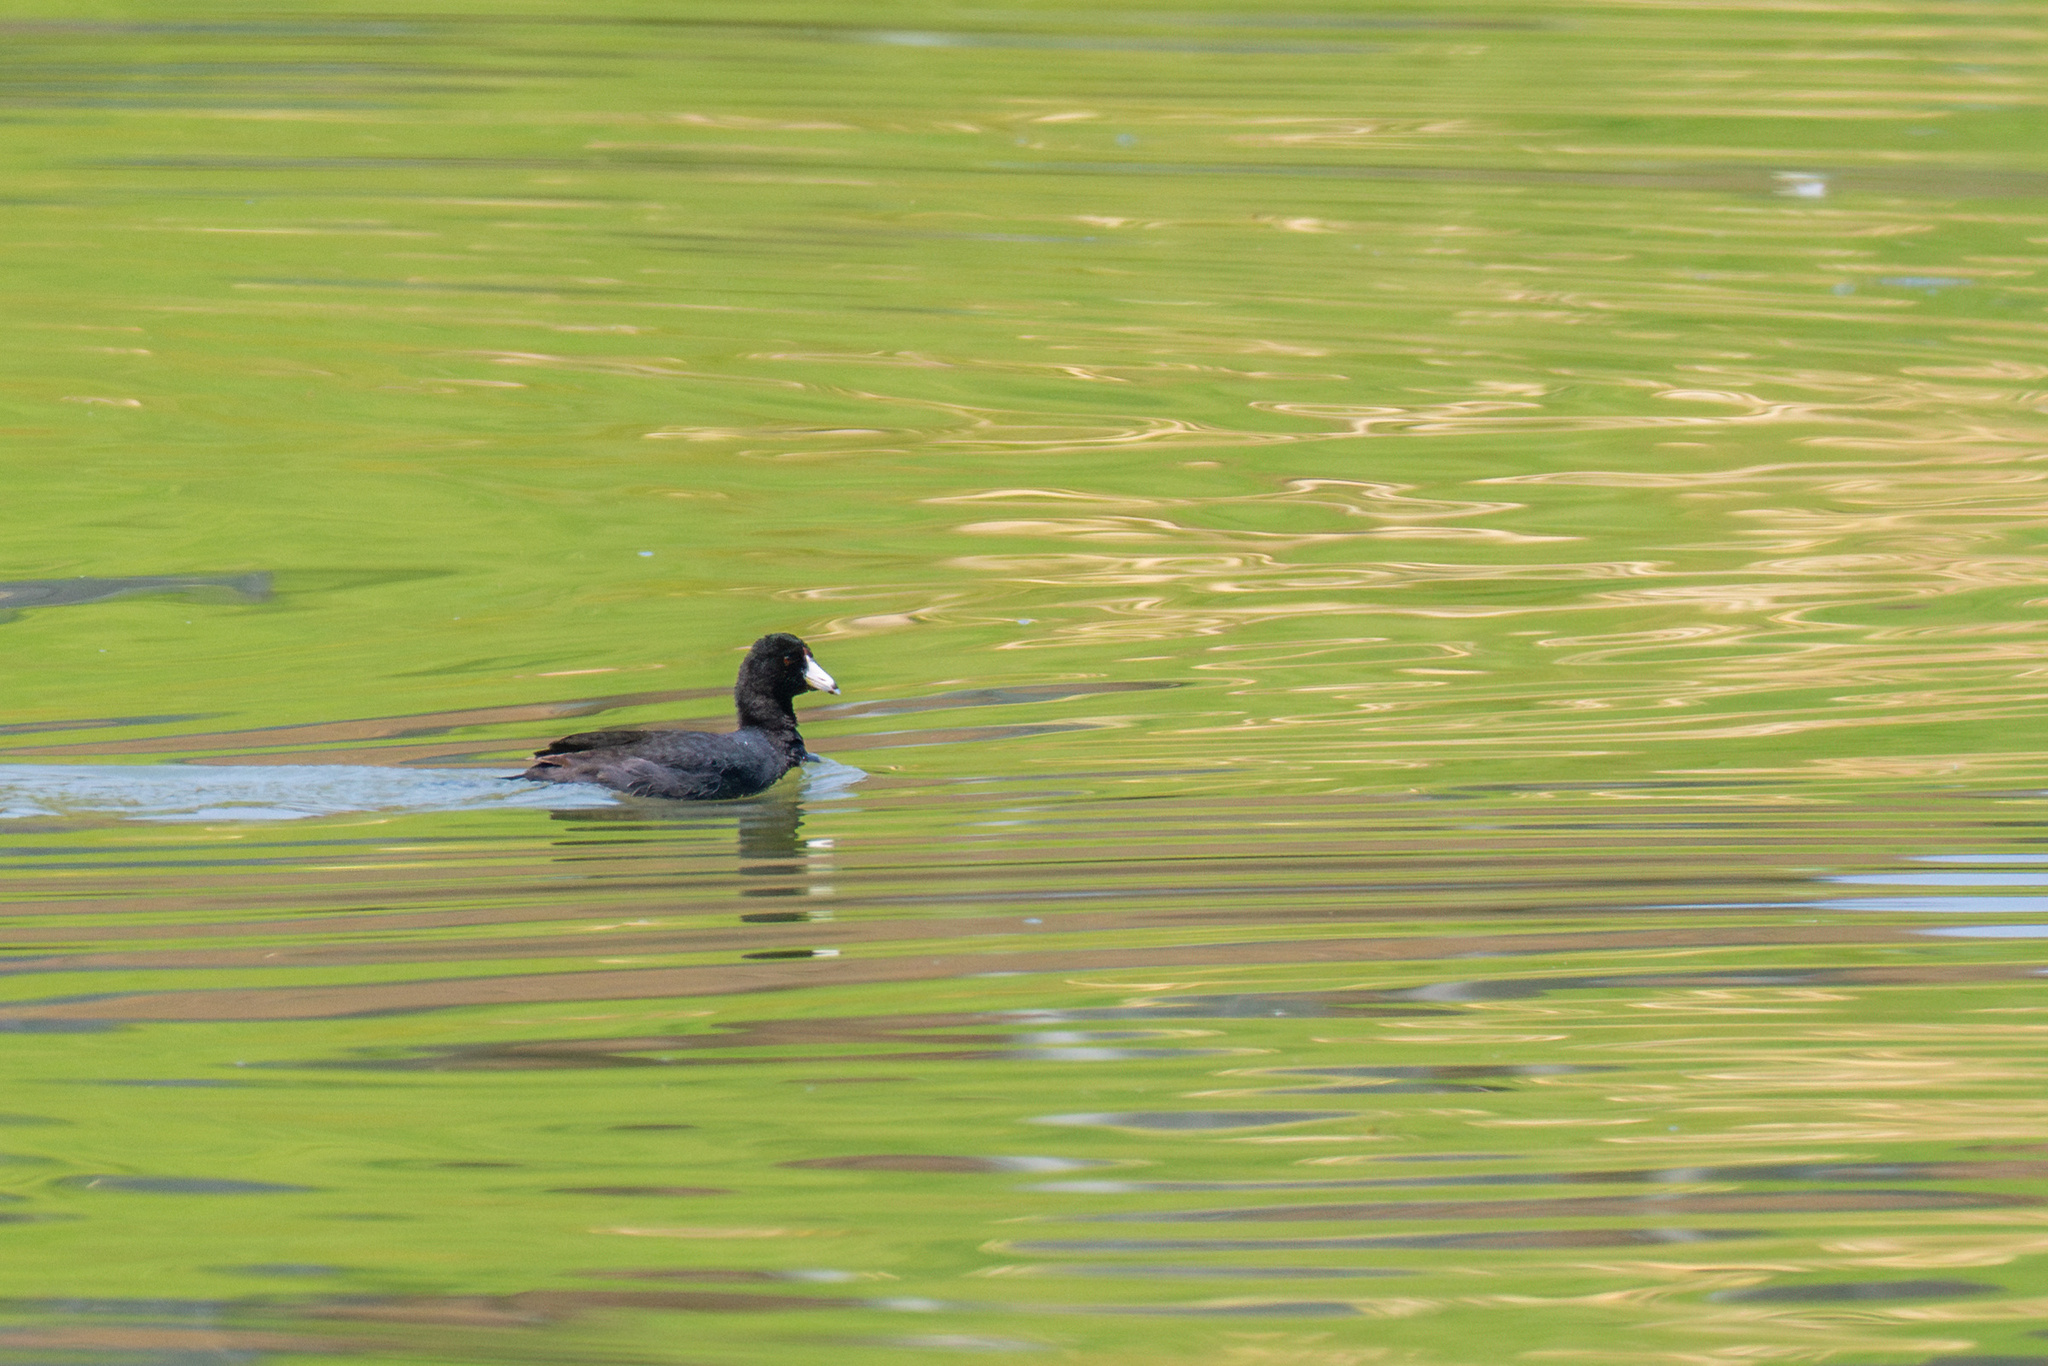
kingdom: Animalia
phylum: Chordata
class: Aves
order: Gruiformes
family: Rallidae
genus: Fulica
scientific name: Fulica americana
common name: American coot
